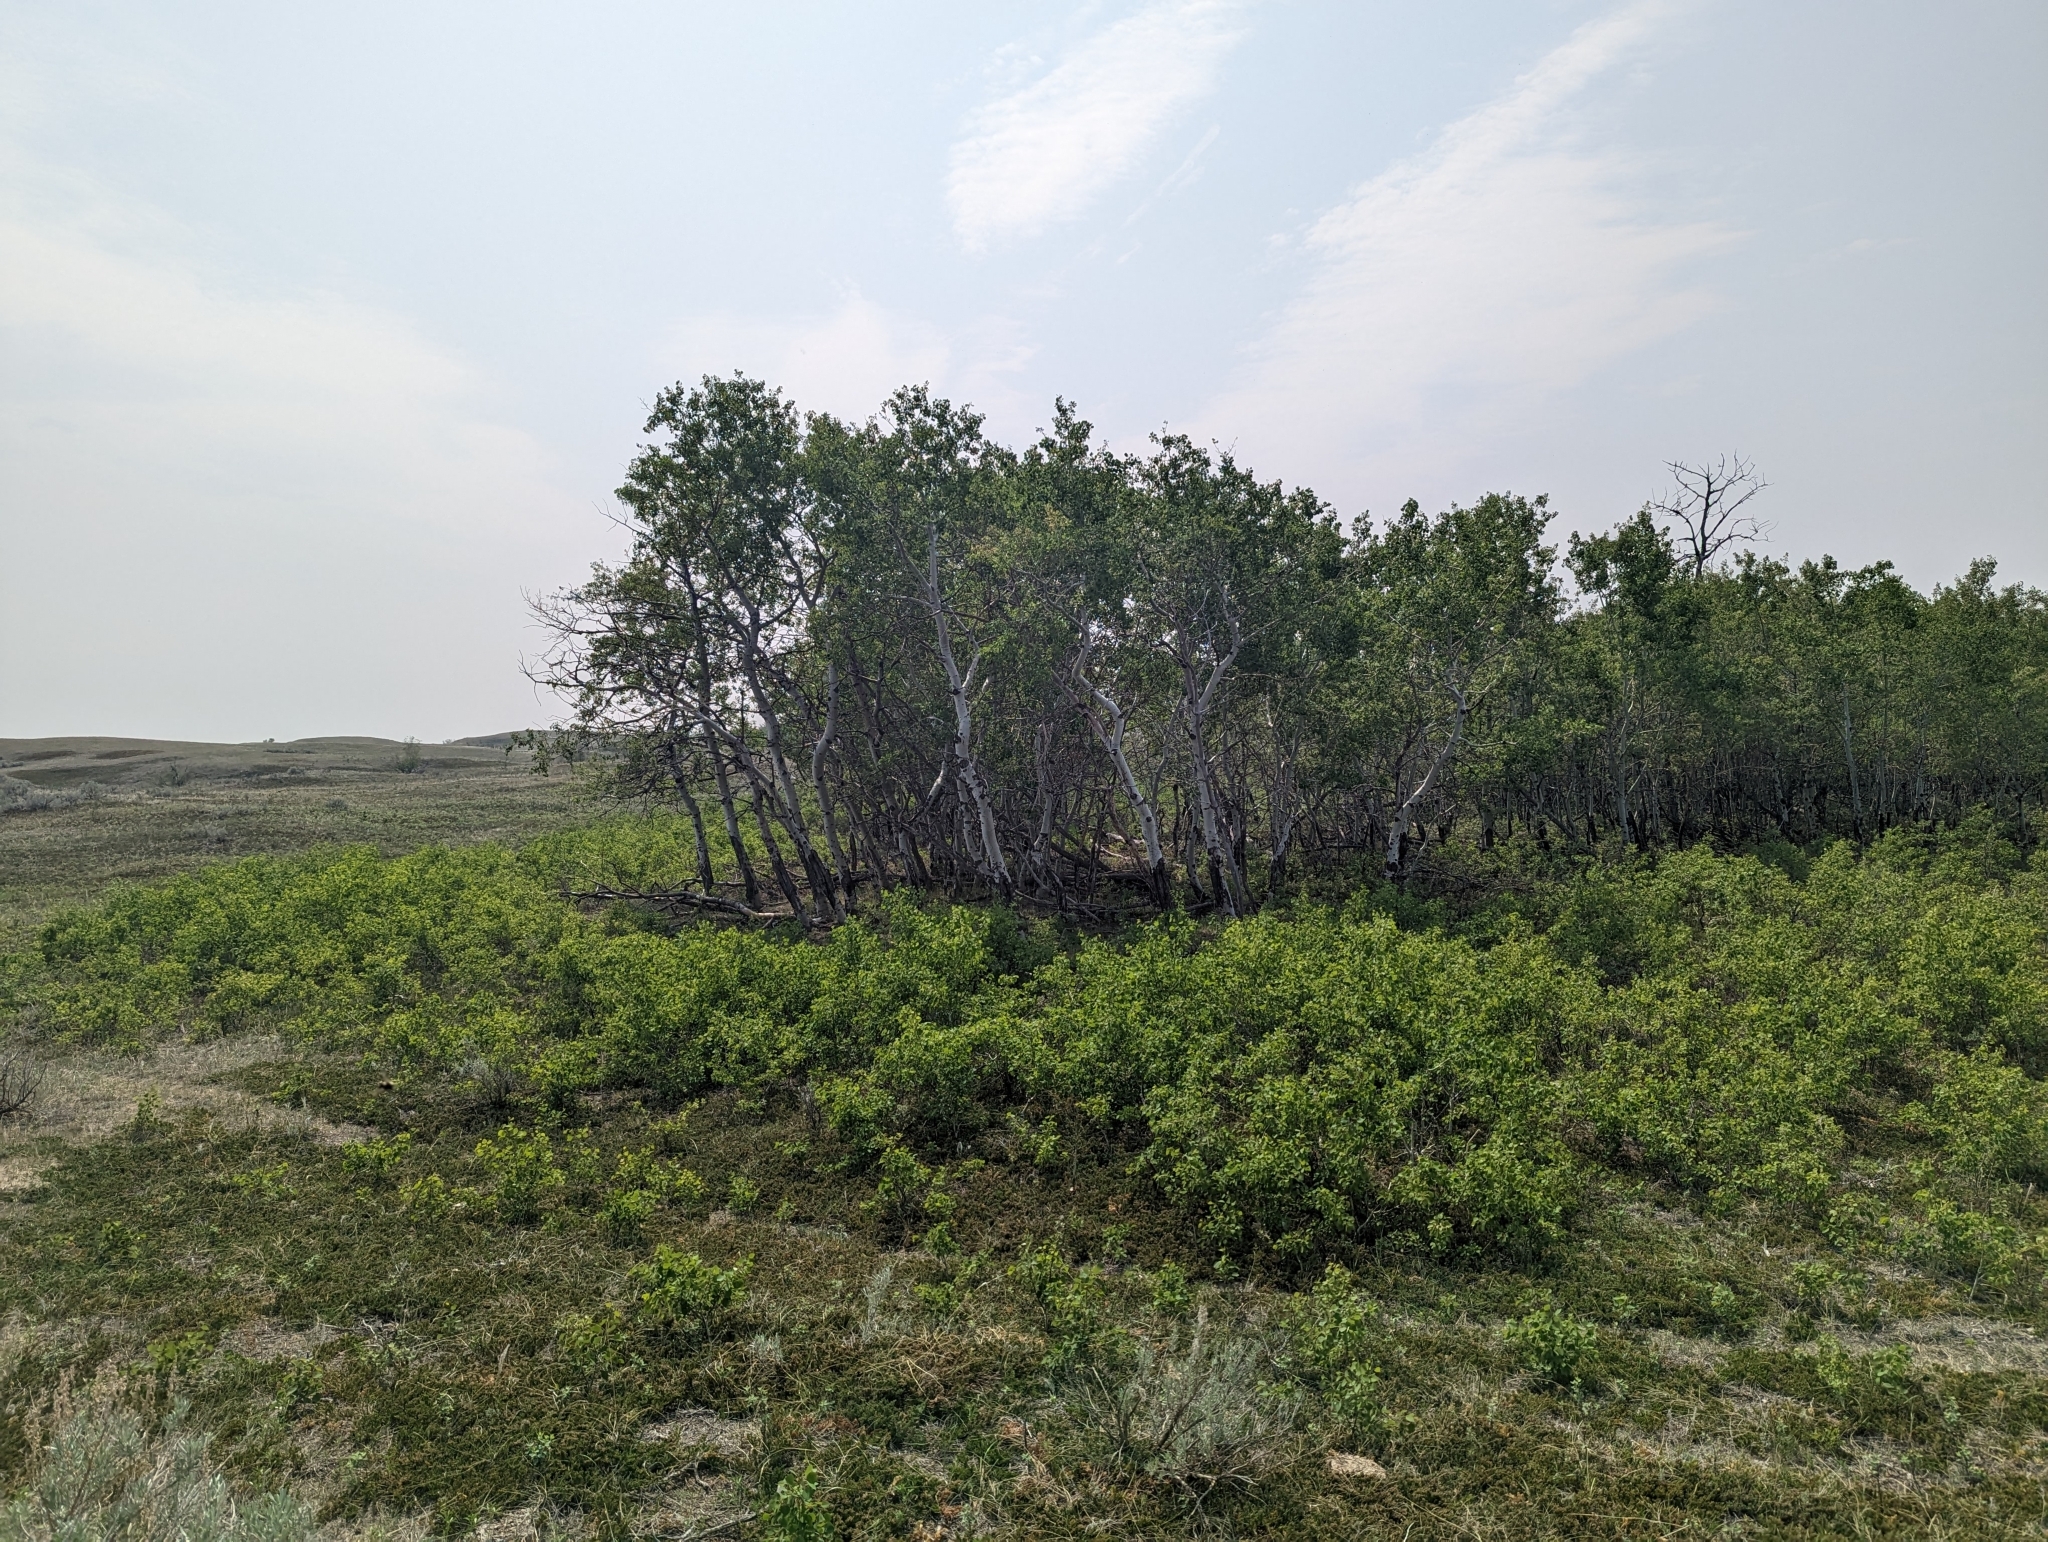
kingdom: Plantae
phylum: Tracheophyta
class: Magnoliopsida
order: Malpighiales
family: Salicaceae
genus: Populus
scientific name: Populus tremuloides
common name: Quaking aspen
